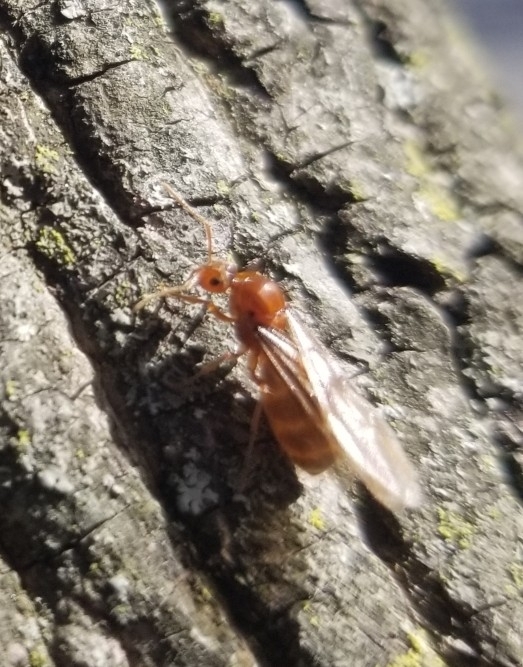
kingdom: Animalia
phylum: Arthropoda
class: Insecta
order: Hymenoptera
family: Formicidae
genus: Prenolepis
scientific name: Prenolepis imparis
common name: Small honey ant
